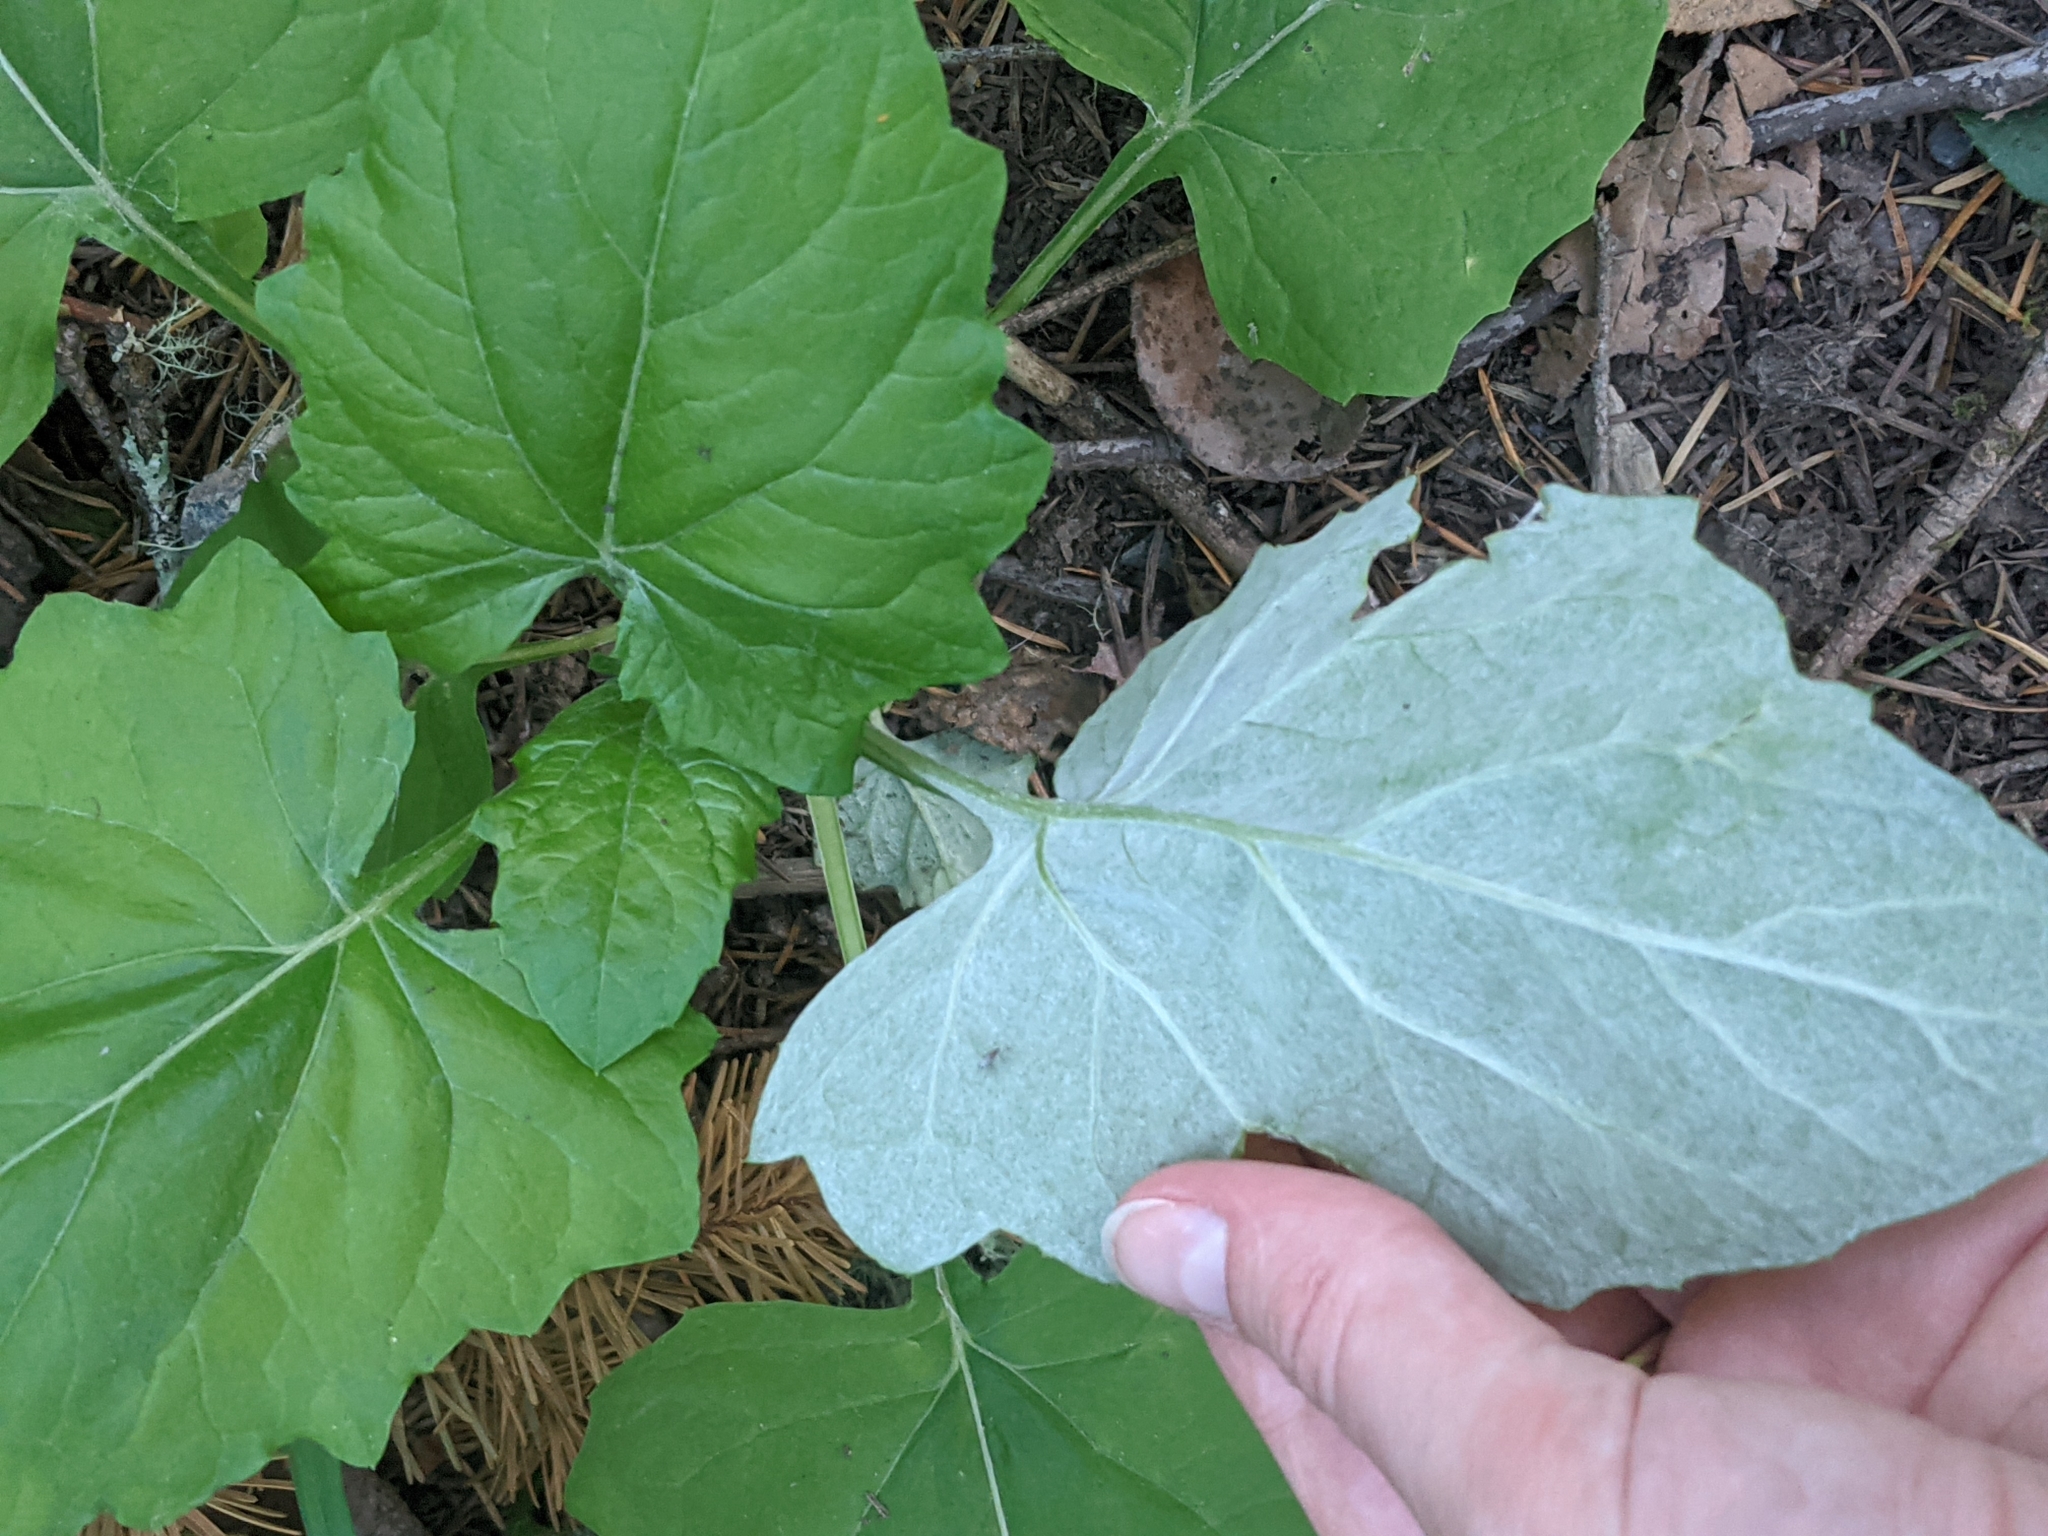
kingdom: Plantae
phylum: Tracheophyta
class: Magnoliopsida
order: Asterales
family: Asteraceae
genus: Adenocaulon
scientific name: Adenocaulon bicolor
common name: Trailplant
